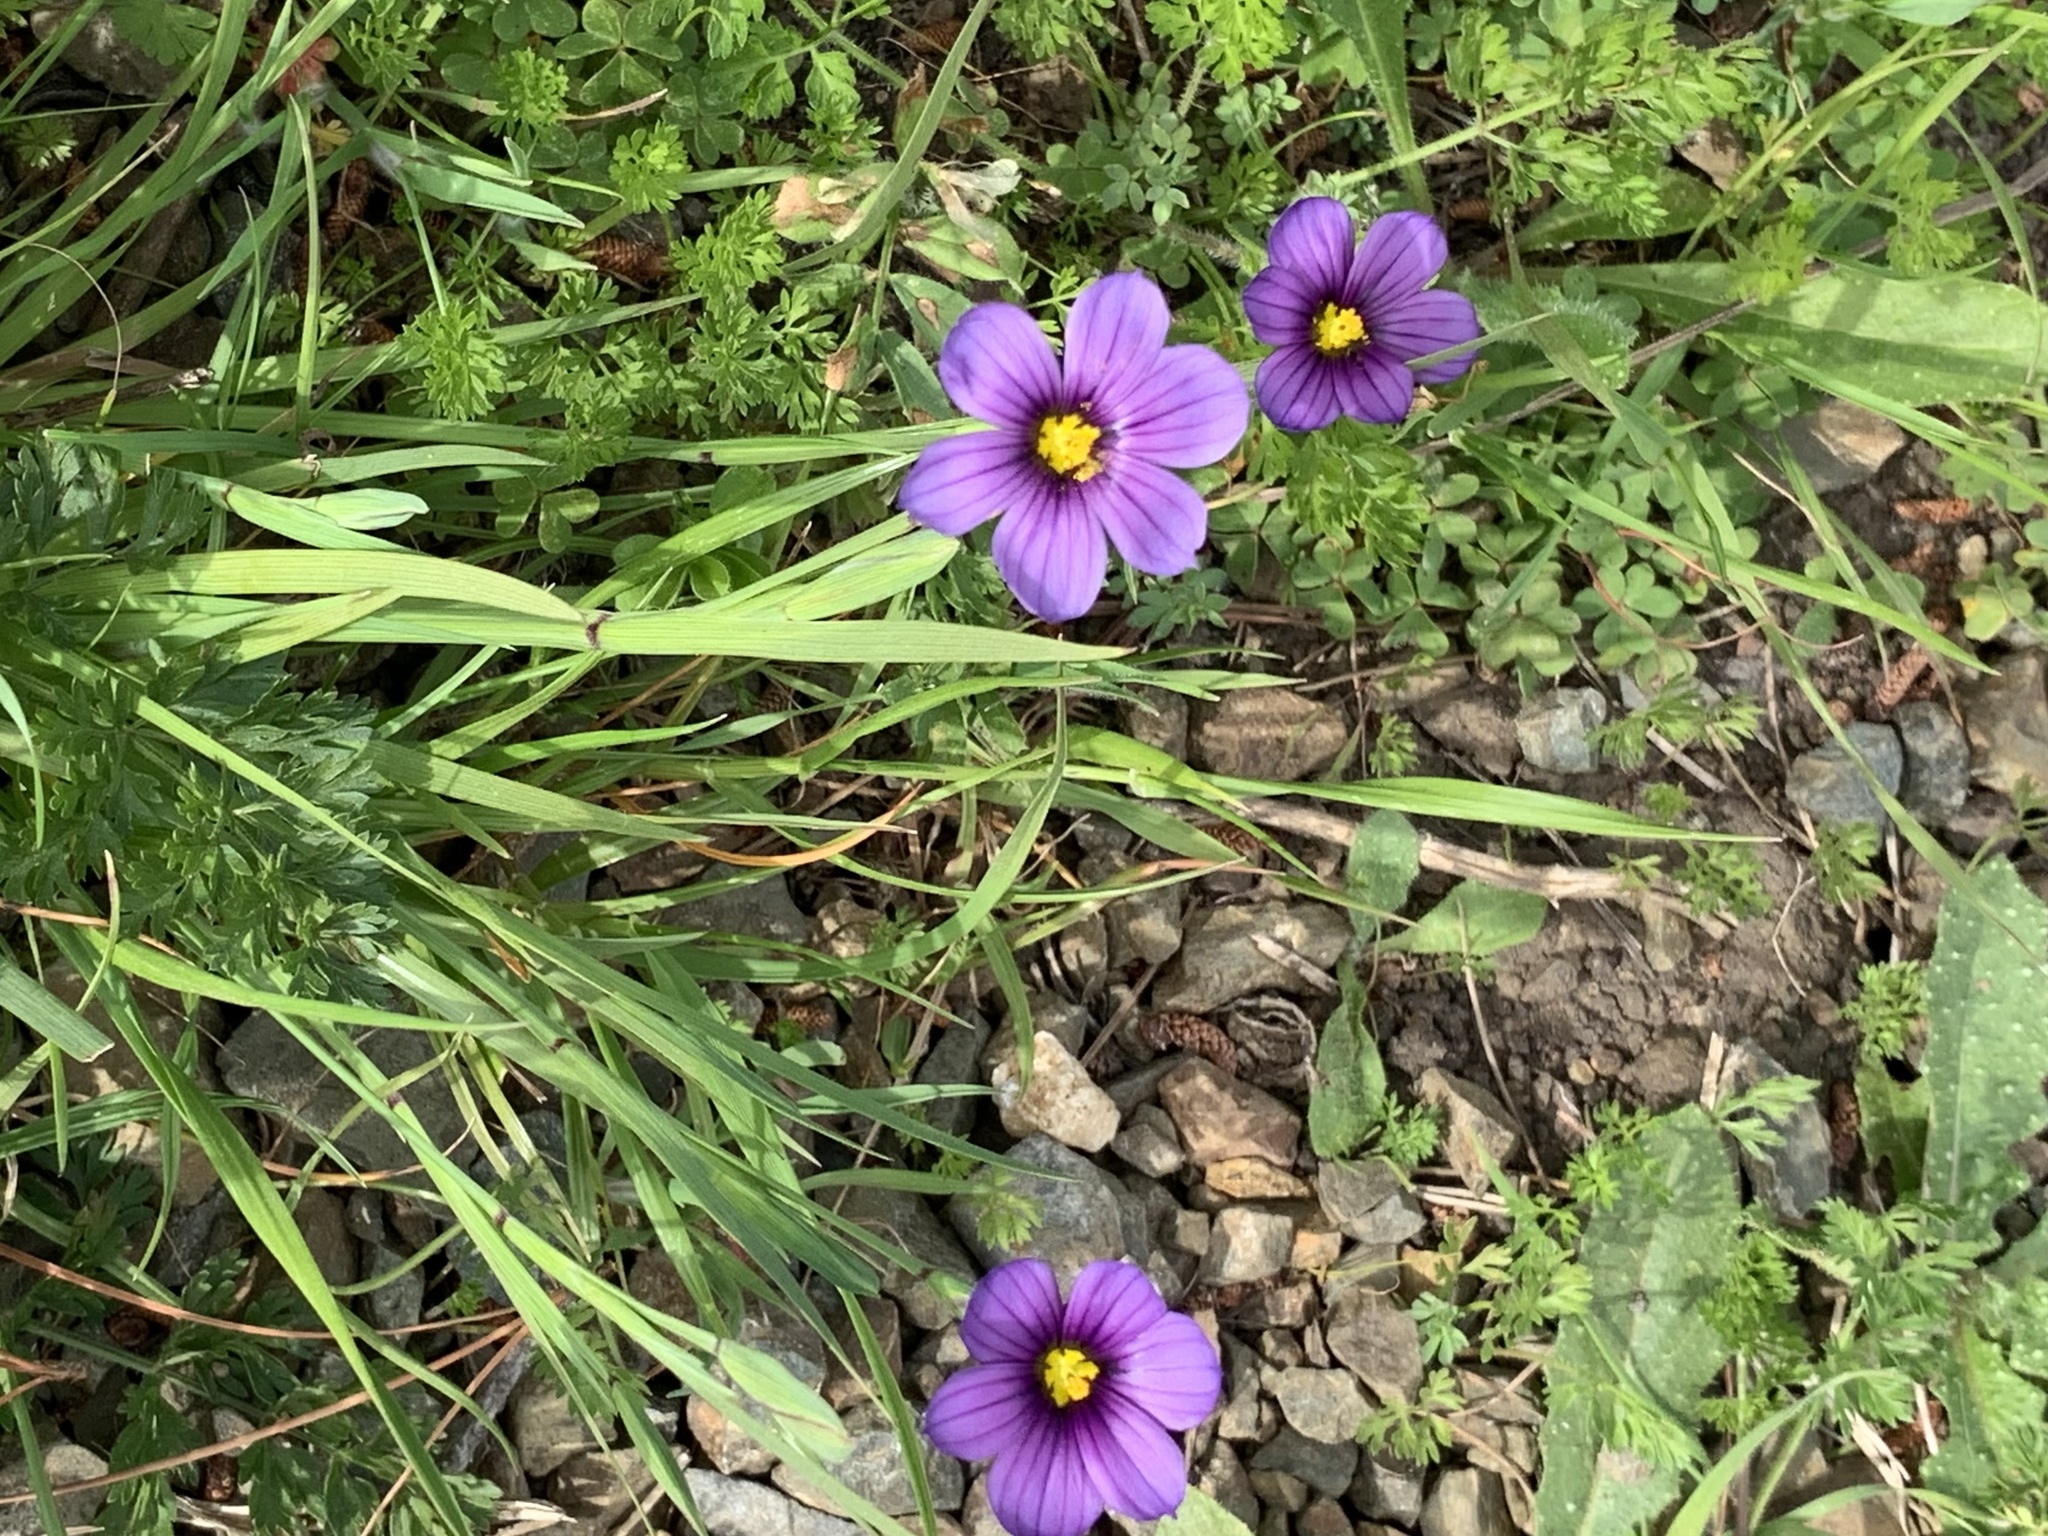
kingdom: Plantae
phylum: Tracheophyta
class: Liliopsida
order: Asparagales
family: Iridaceae
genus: Sisyrinchium
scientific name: Sisyrinchium bellum
